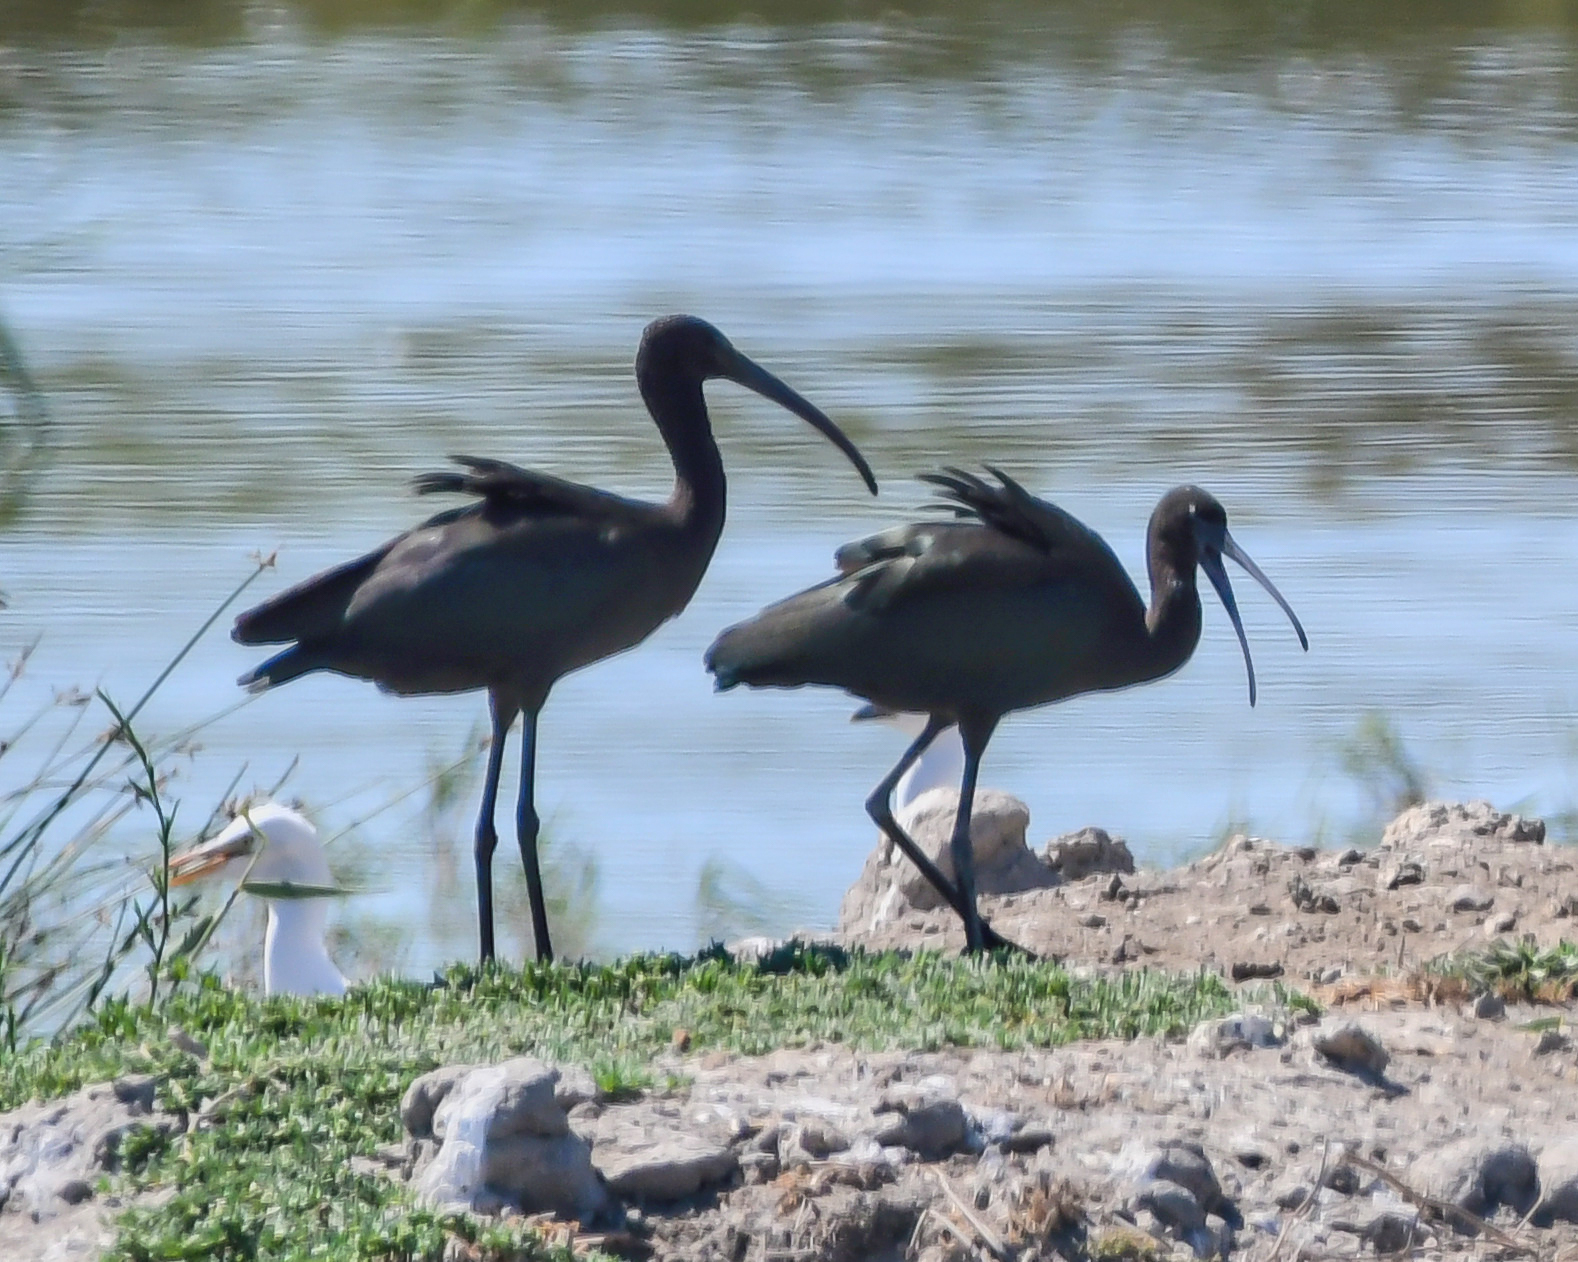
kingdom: Animalia
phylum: Chordata
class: Aves
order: Pelecaniformes
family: Threskiornithidae
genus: Plegadis
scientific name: Plegadis falcinellus
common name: Glossy ibis
